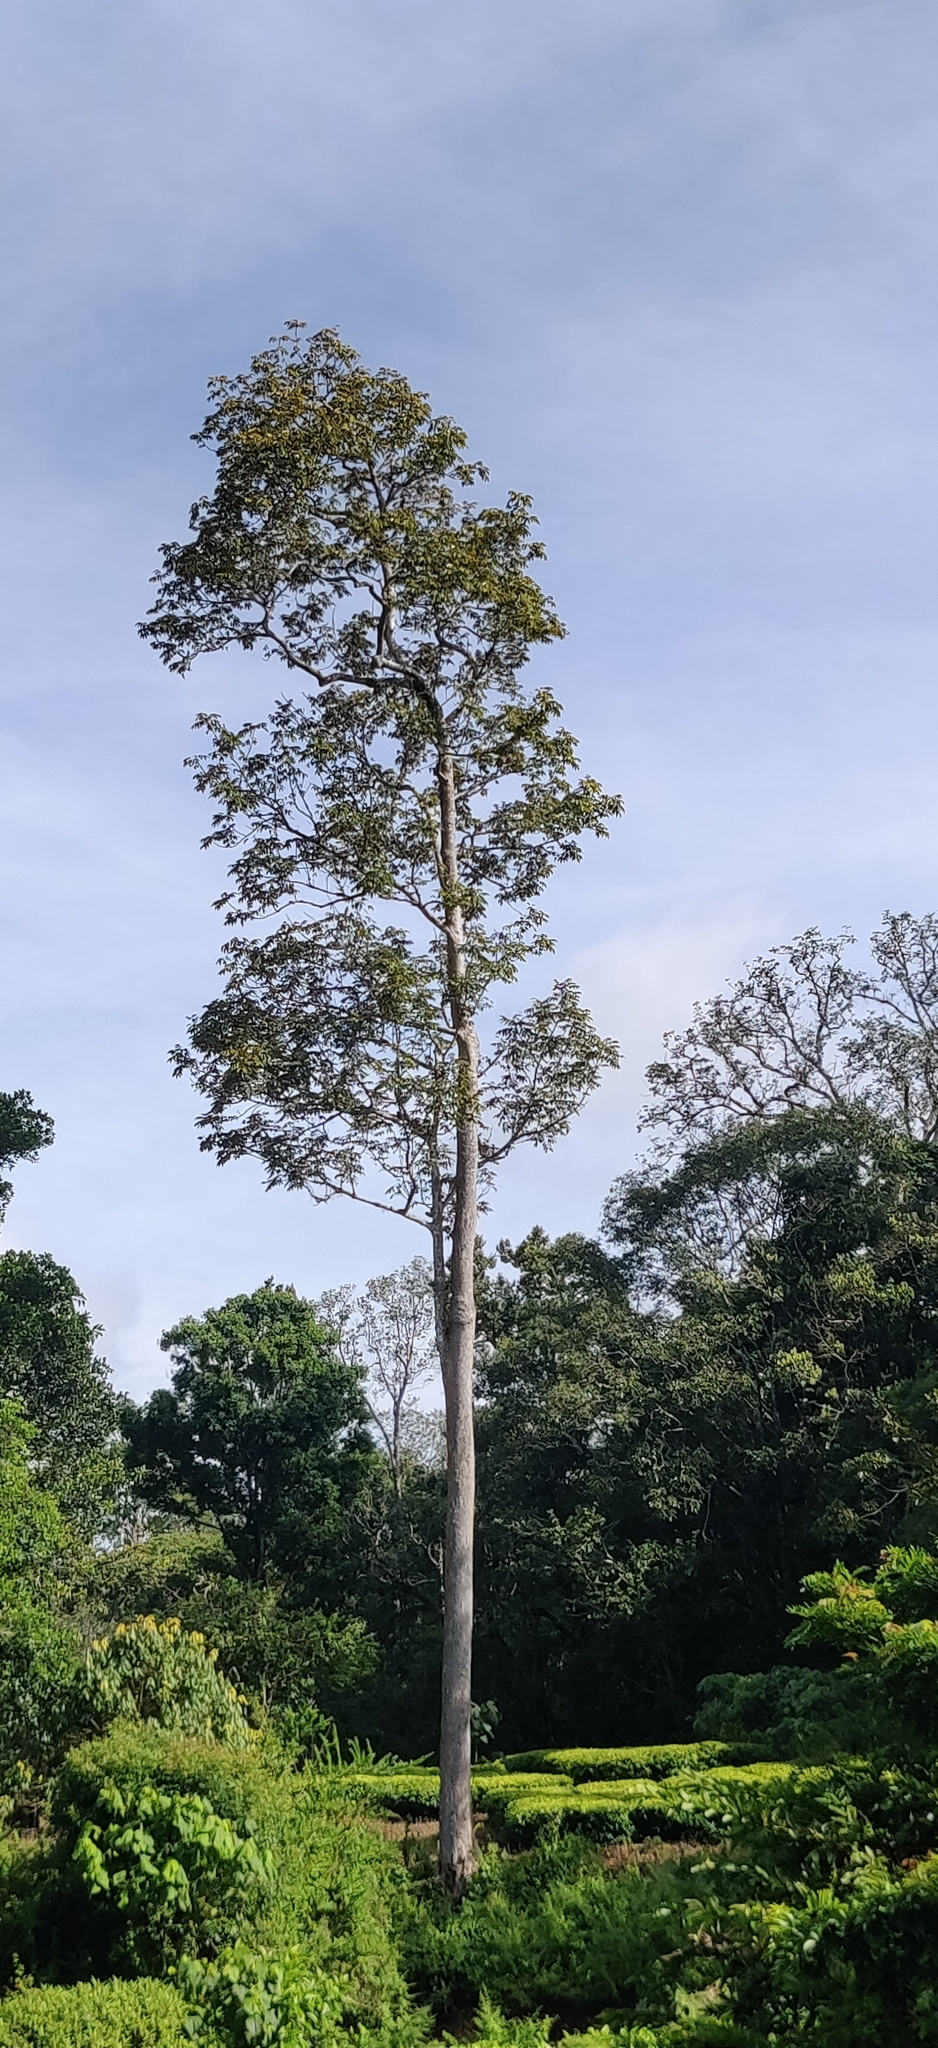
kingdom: Plantae
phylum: Tracheophyta
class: Magnoliopsida
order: Sapindales
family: Burseraceae
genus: Canarium
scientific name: Canarium strictum
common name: Indian white-mahogany
